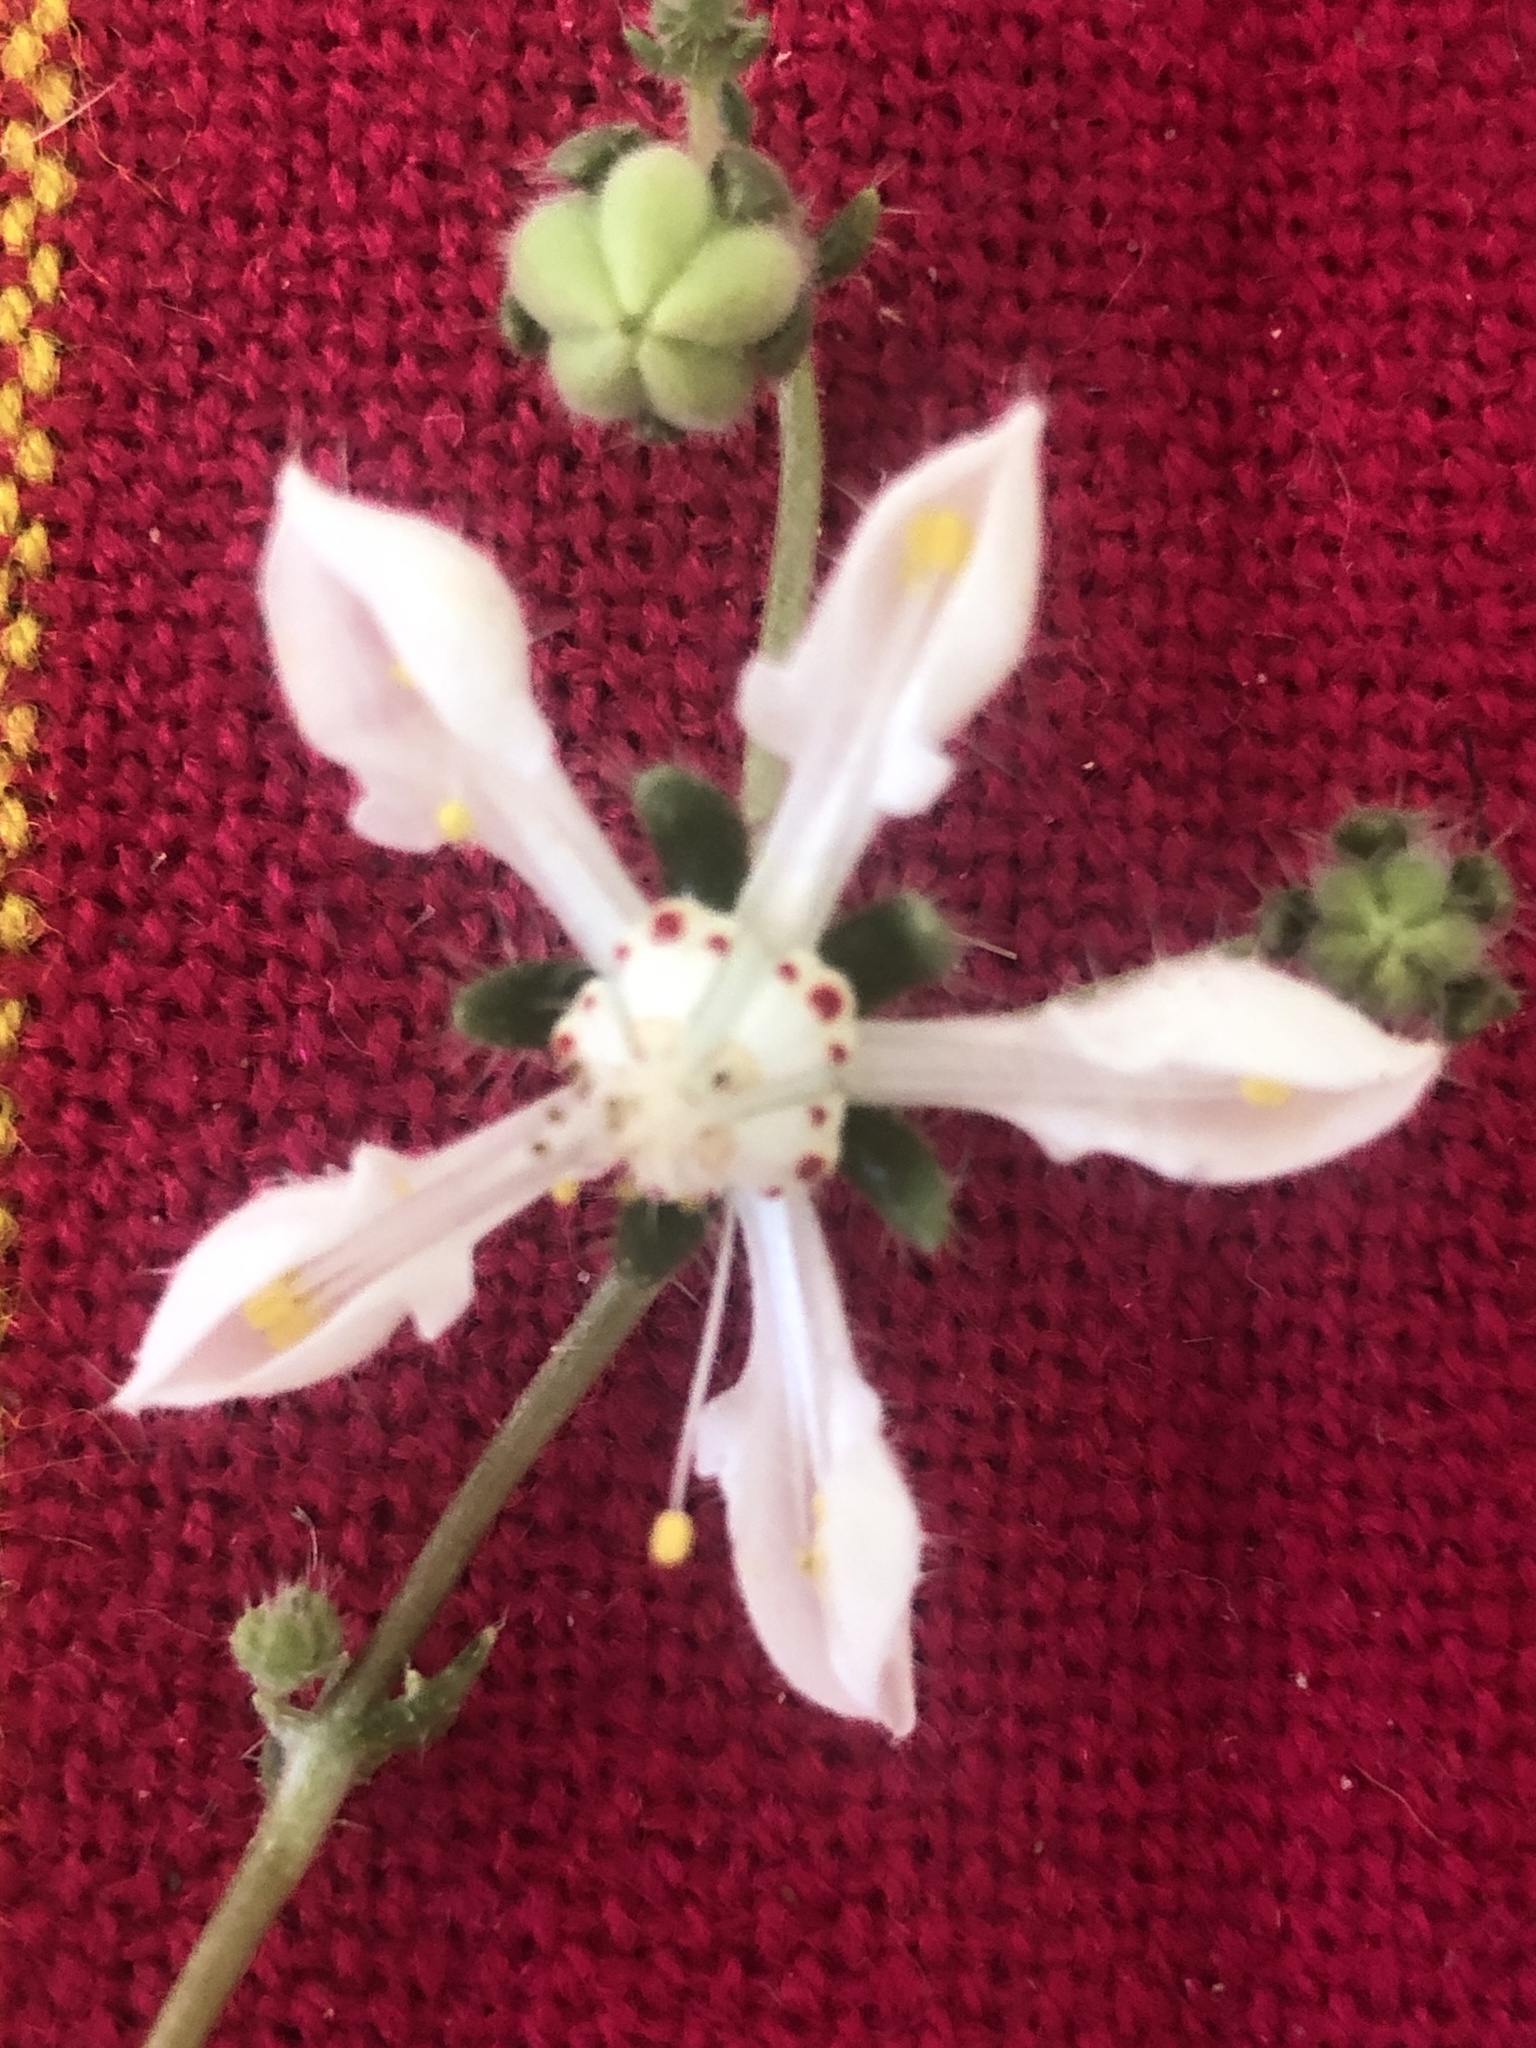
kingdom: Plantae
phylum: Tracheophyta
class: Magnoliopsida
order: Cornales
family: Loasaceae
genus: Loasa
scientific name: Loasa illapelina
